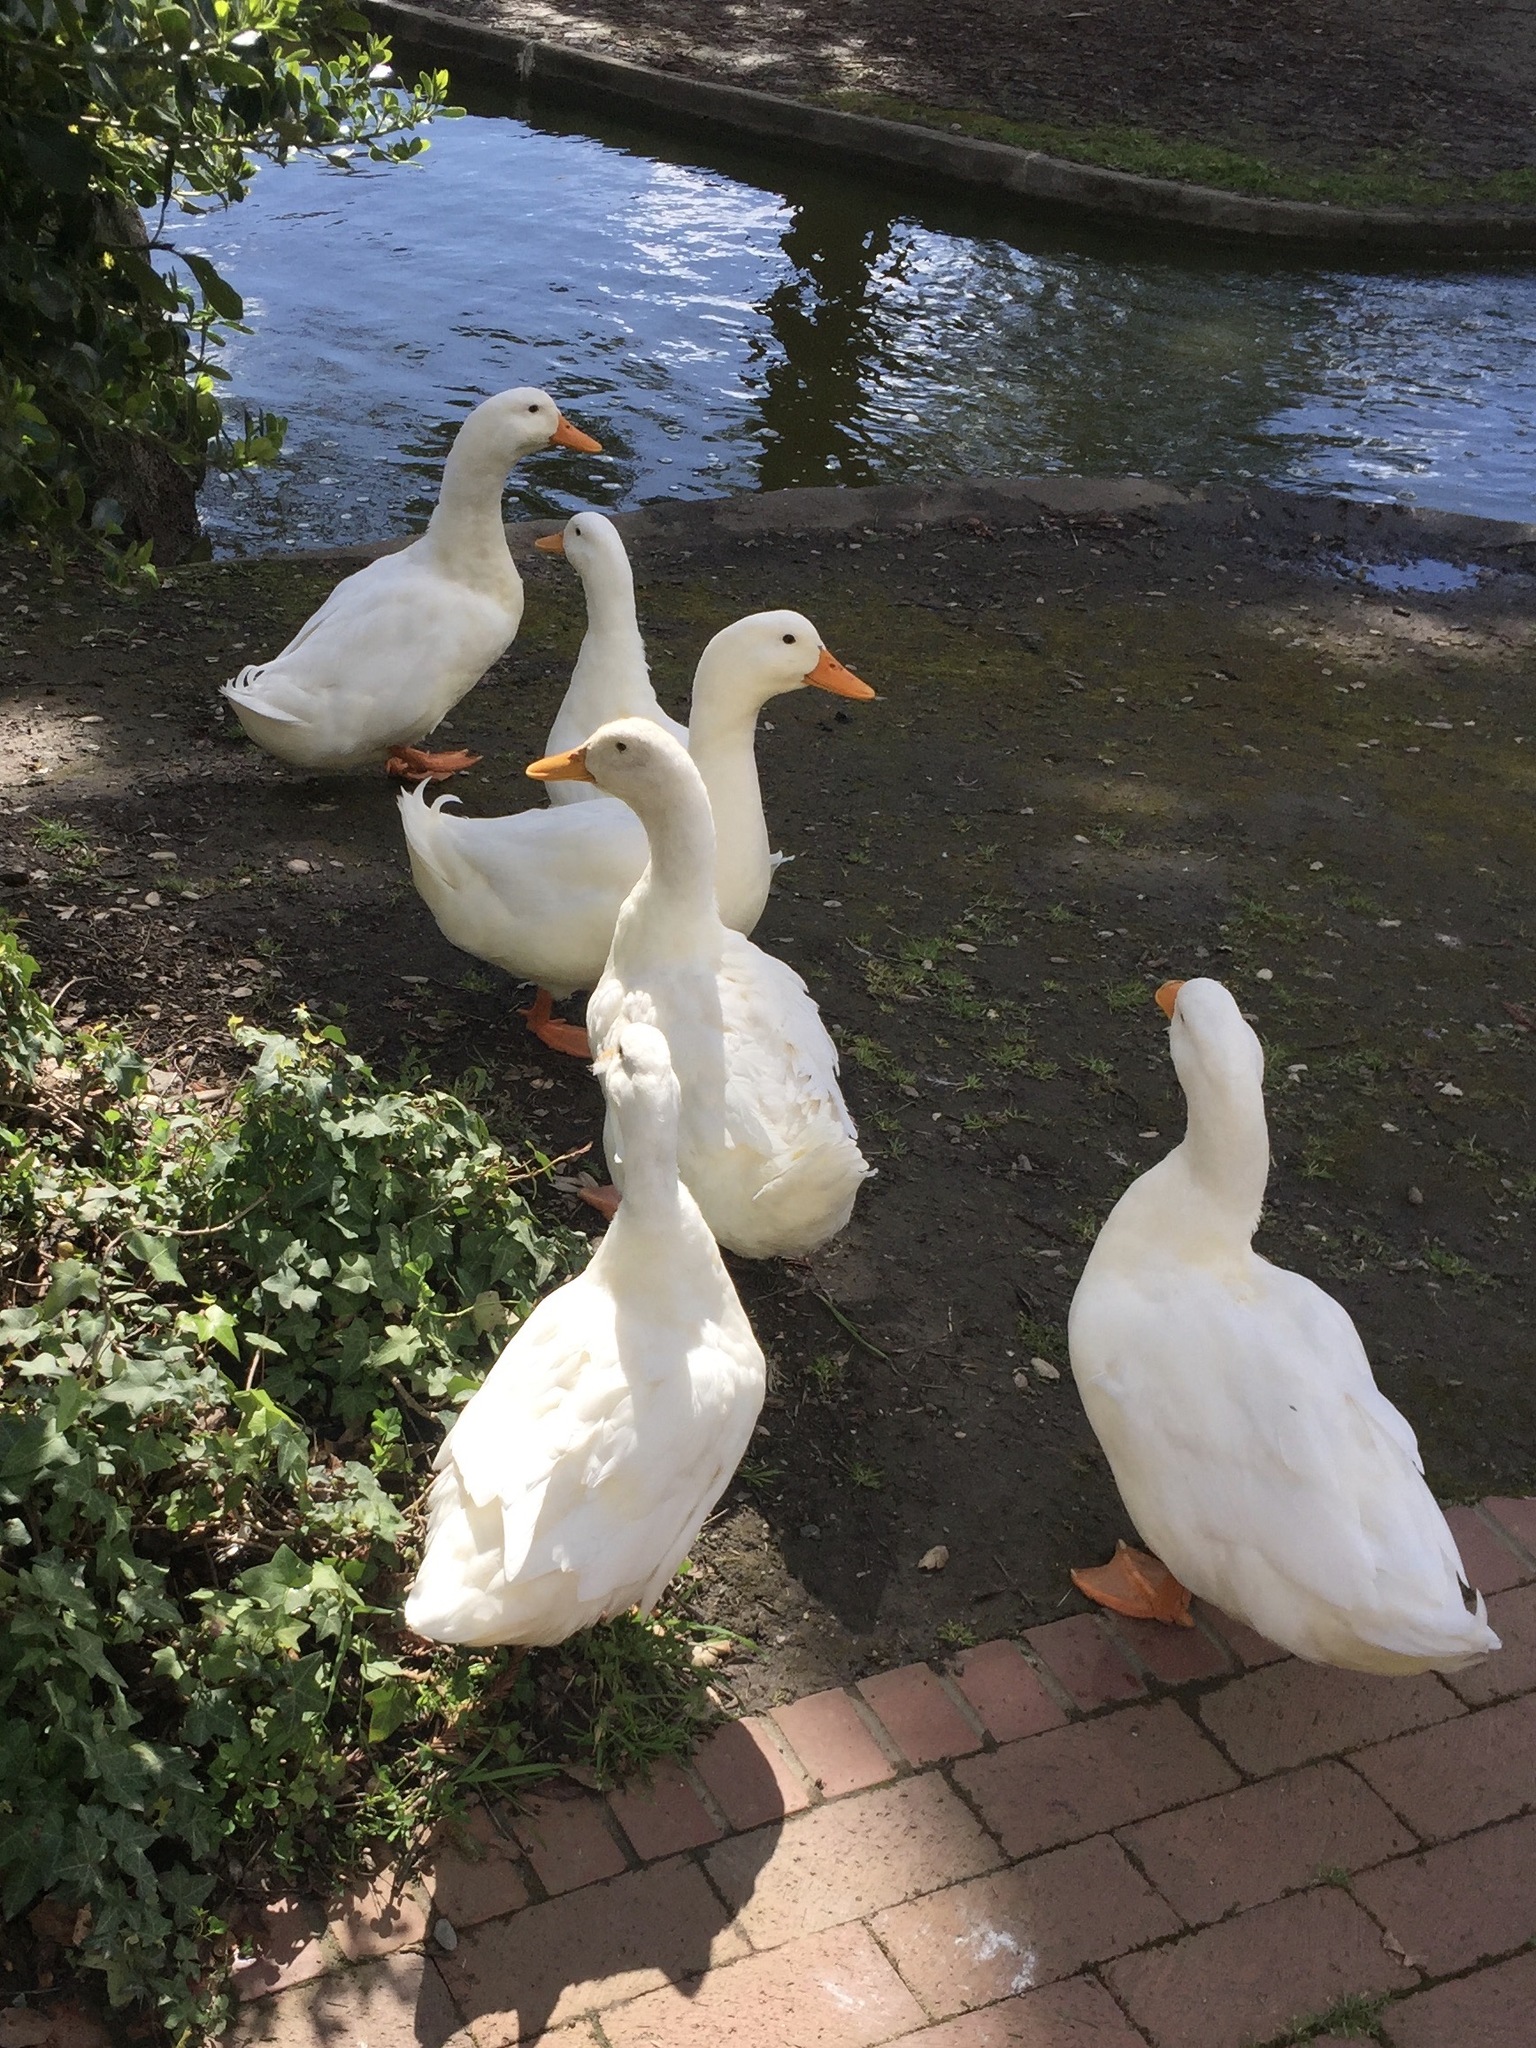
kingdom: Animalia
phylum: Chordata
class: Aves
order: Anseriformes
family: Anatidae
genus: Anas
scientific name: Anas platyrhynchos
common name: Mallard
